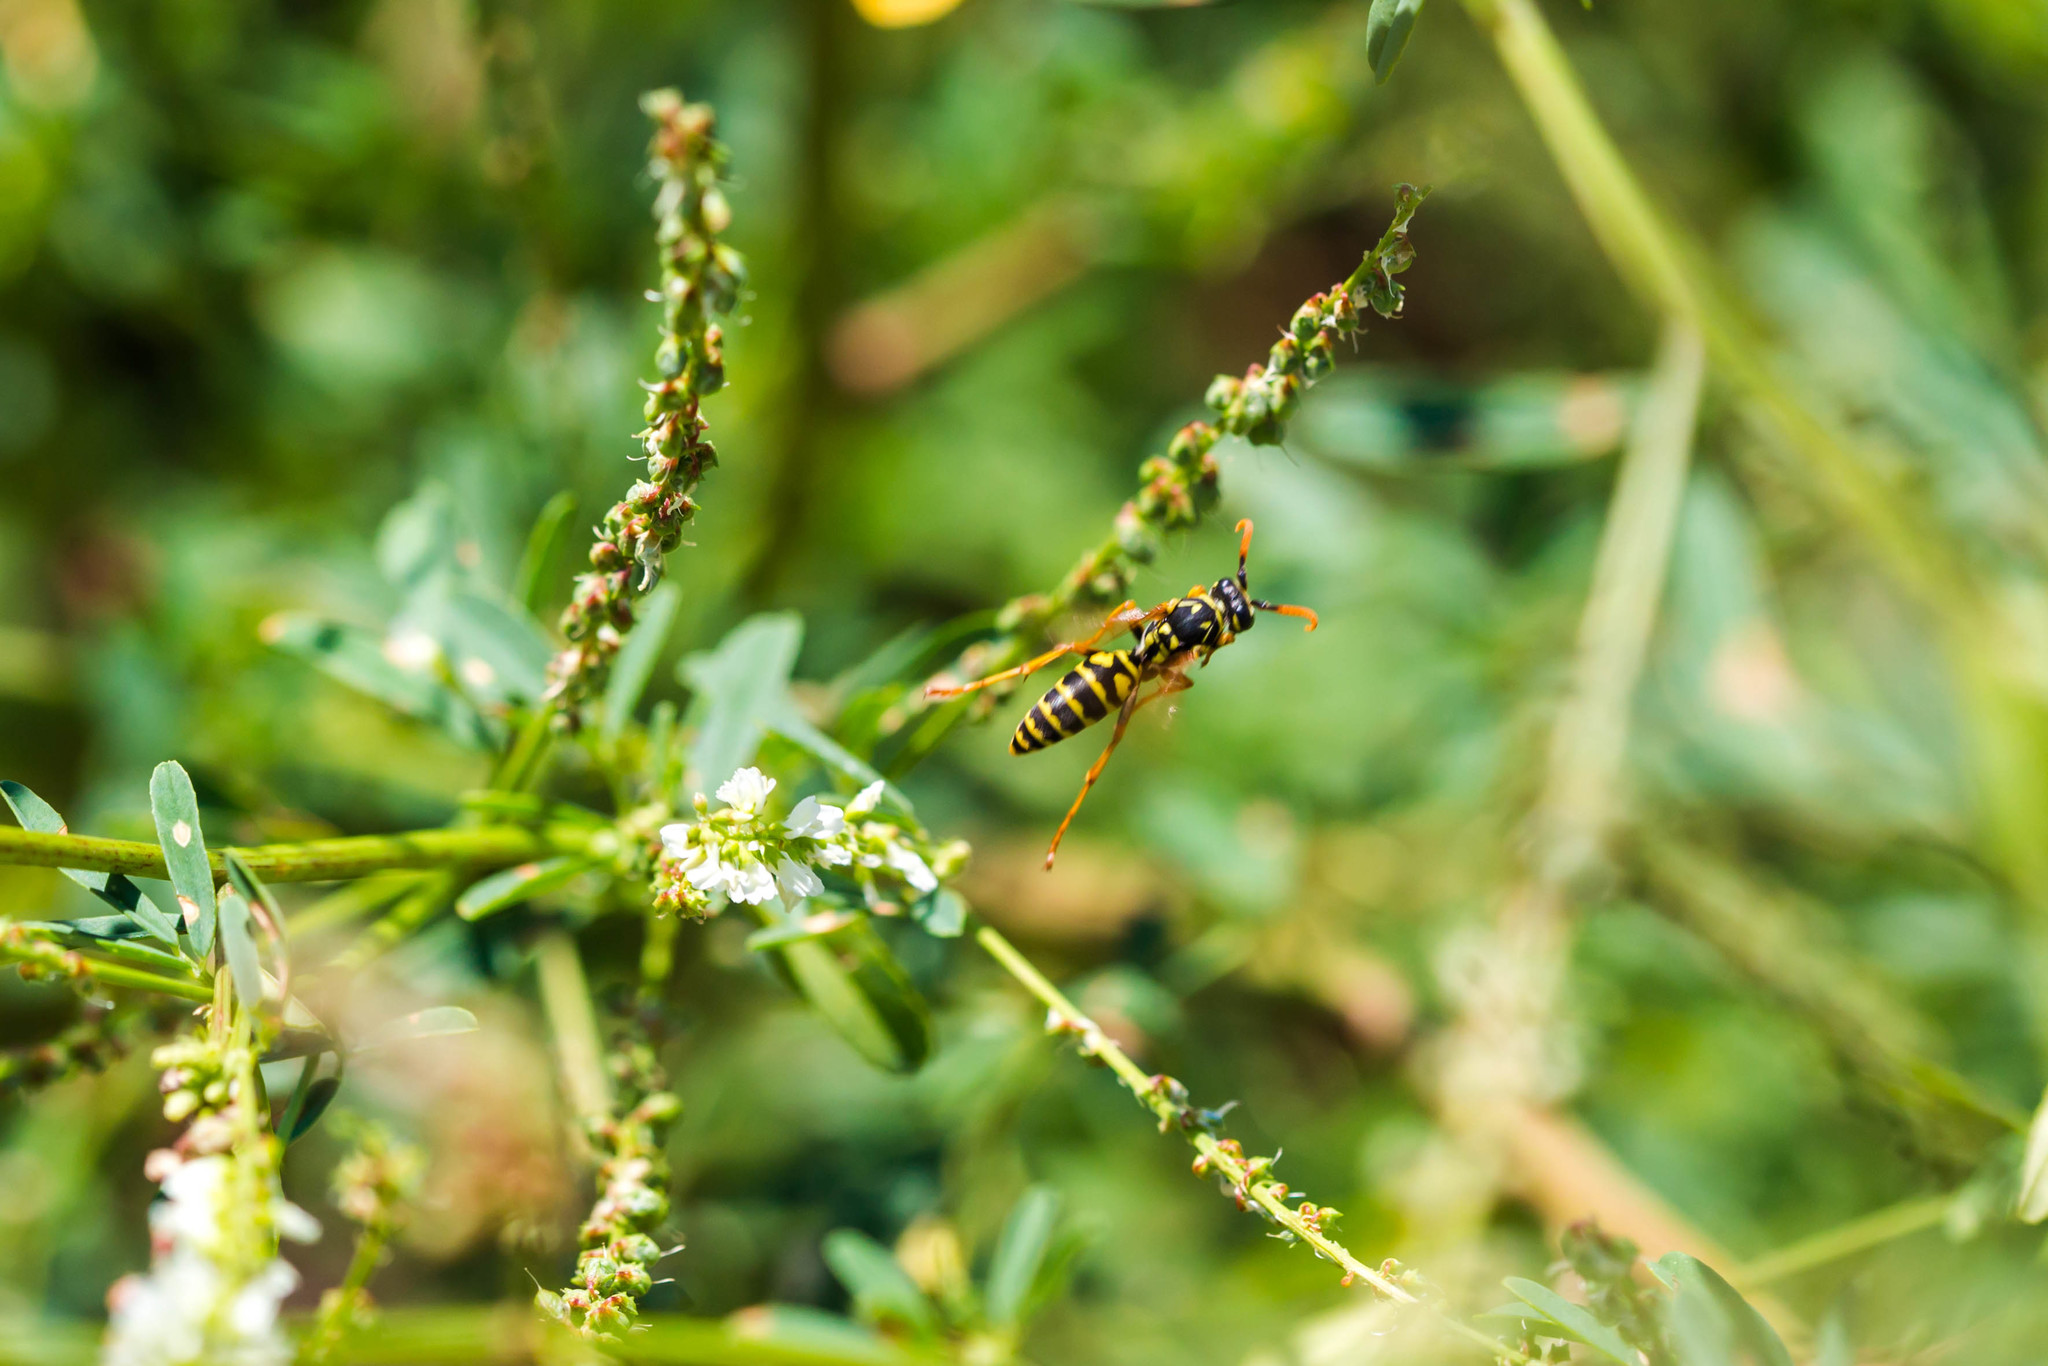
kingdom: Animalia
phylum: Arthropoda
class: Insecta
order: Hymenoptera
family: Eumenidae
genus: Polistes
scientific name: Polistes dominula
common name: Paper wasp
